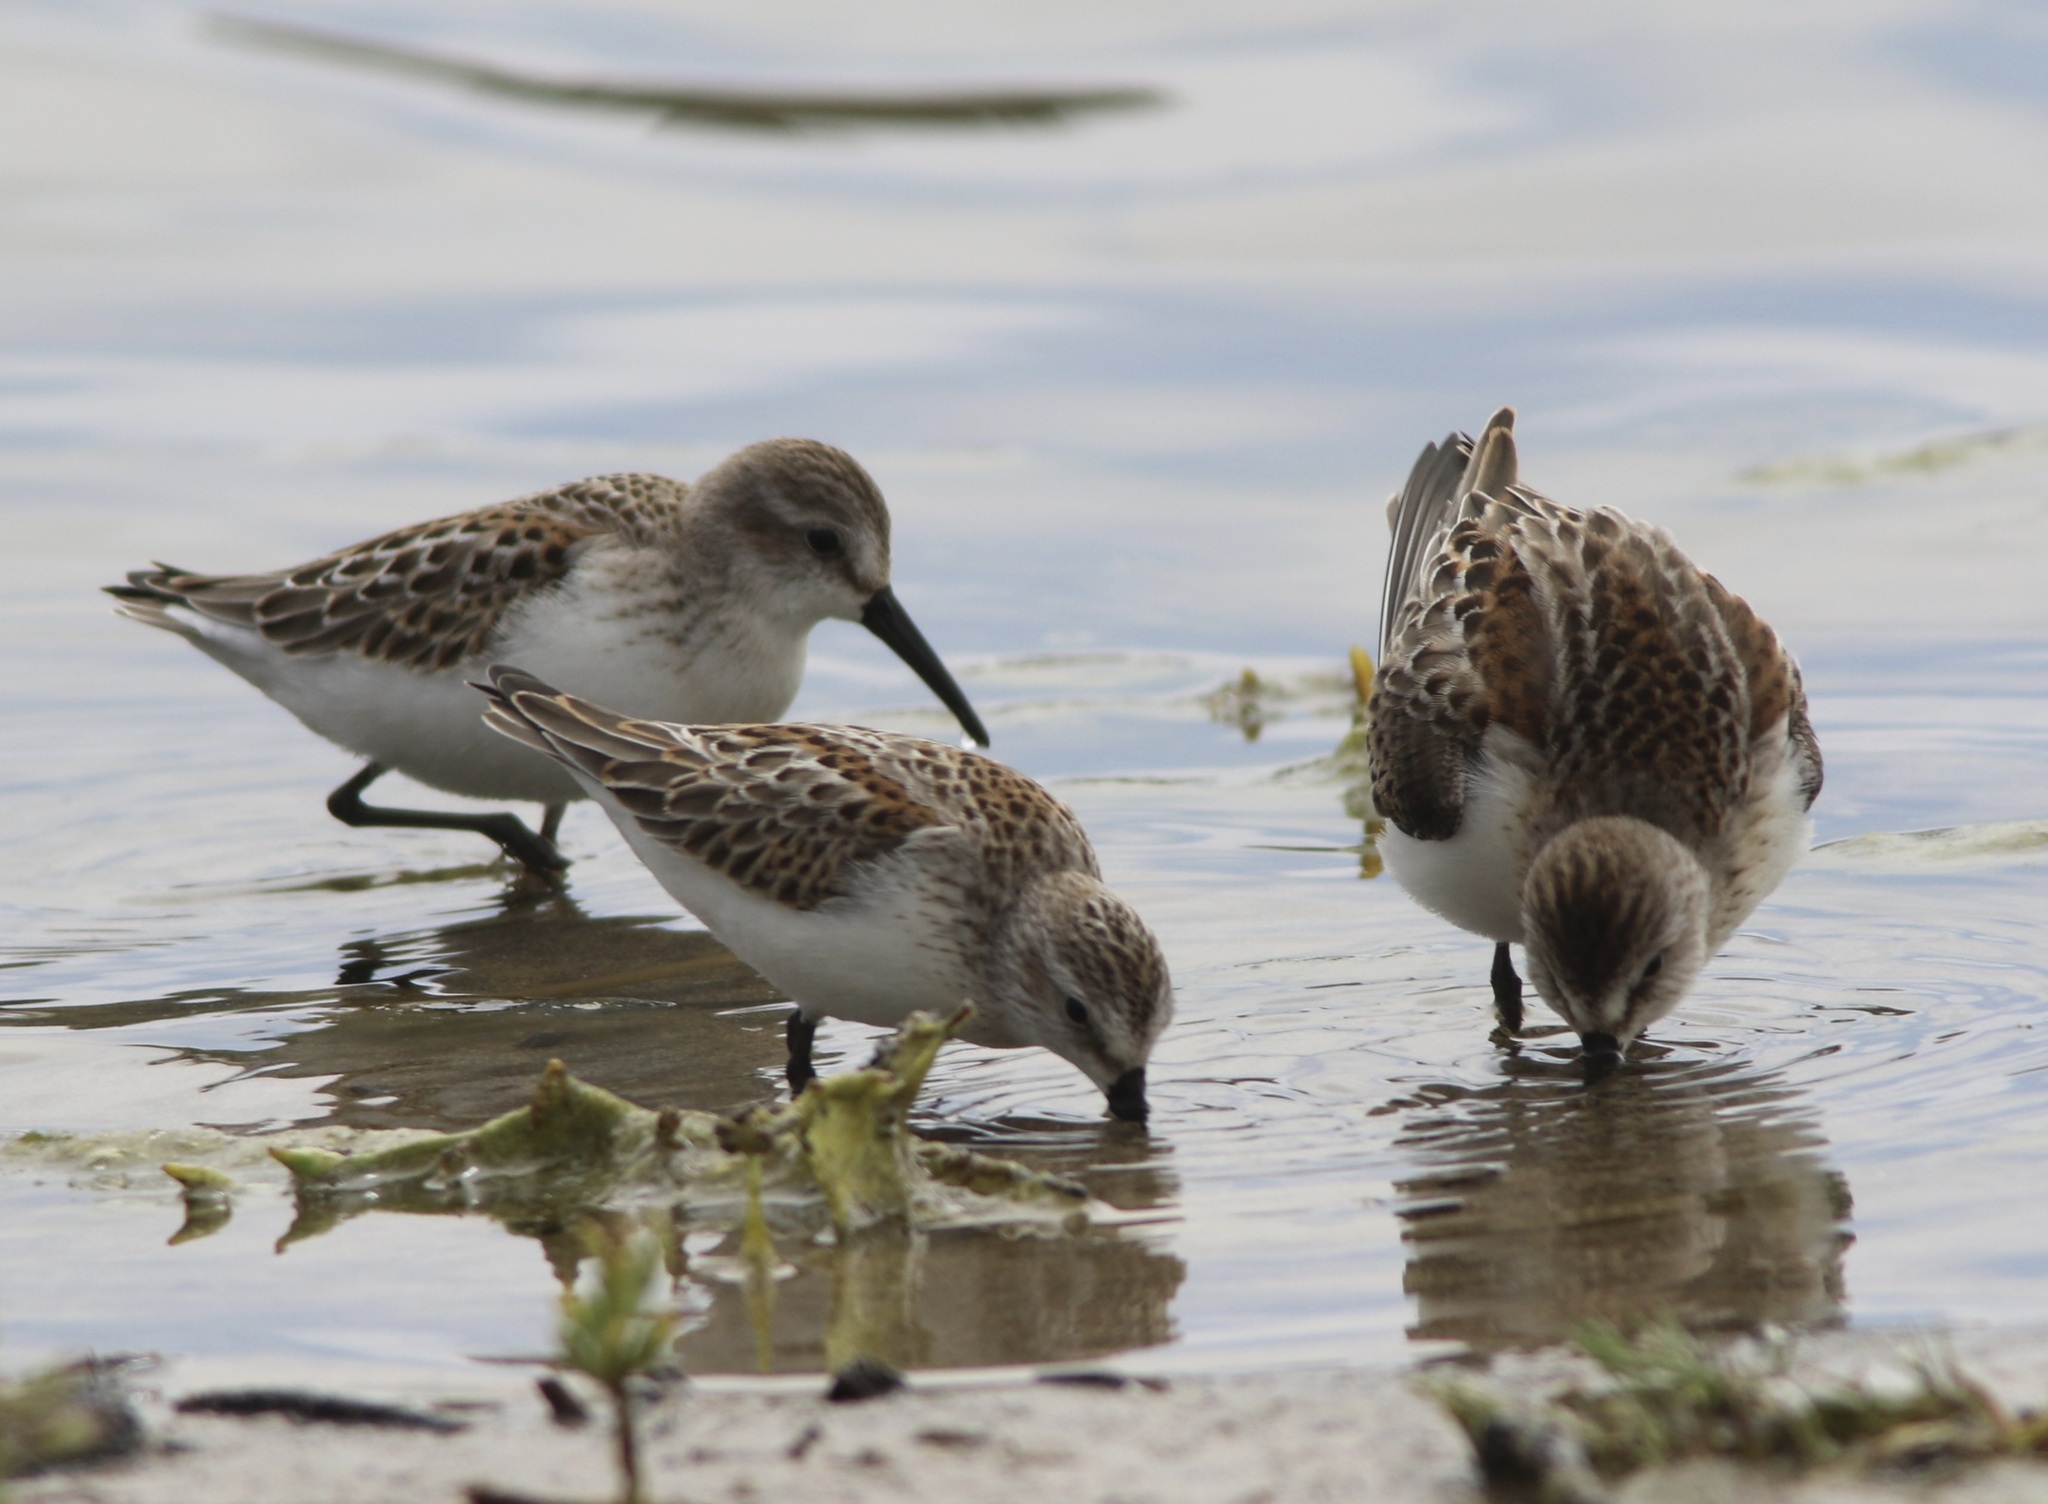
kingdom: Animalia
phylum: Chordata
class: Aves
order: Charadriiformes
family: Scolopacidae
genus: Calidris
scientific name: Calidris mauri
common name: Western sandpiper
